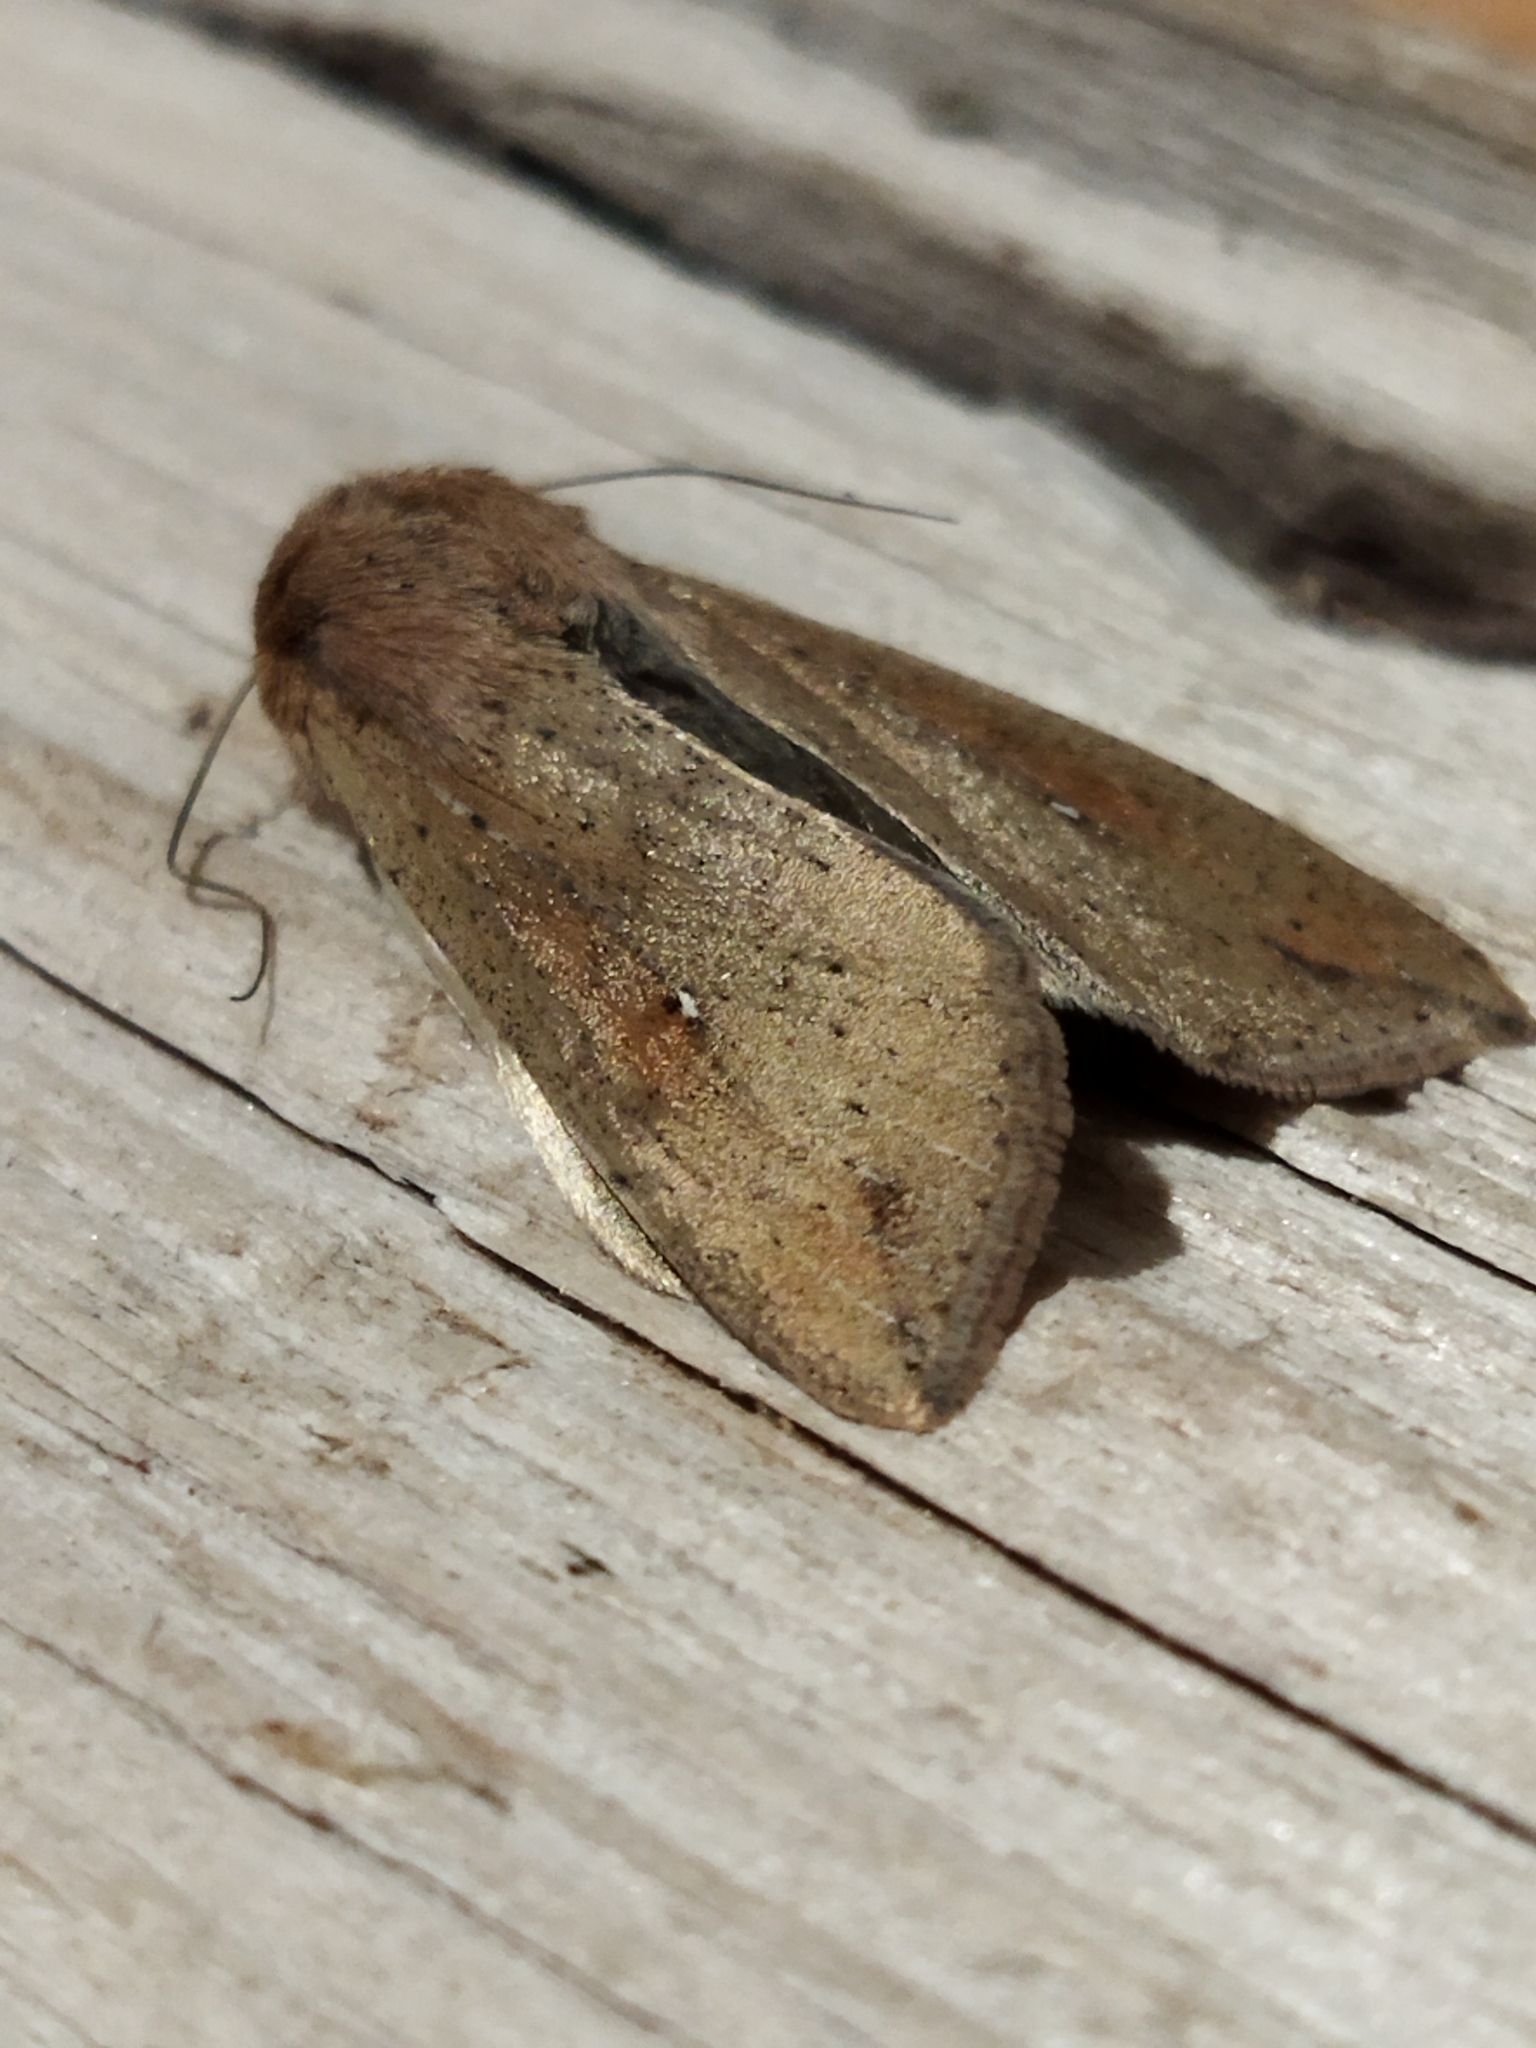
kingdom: Animalia
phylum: Arthropoda
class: Insecta
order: Lepidoptera
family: Noctuidae
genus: Mythimna
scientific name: Mythimna unipuncta
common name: White-speck
